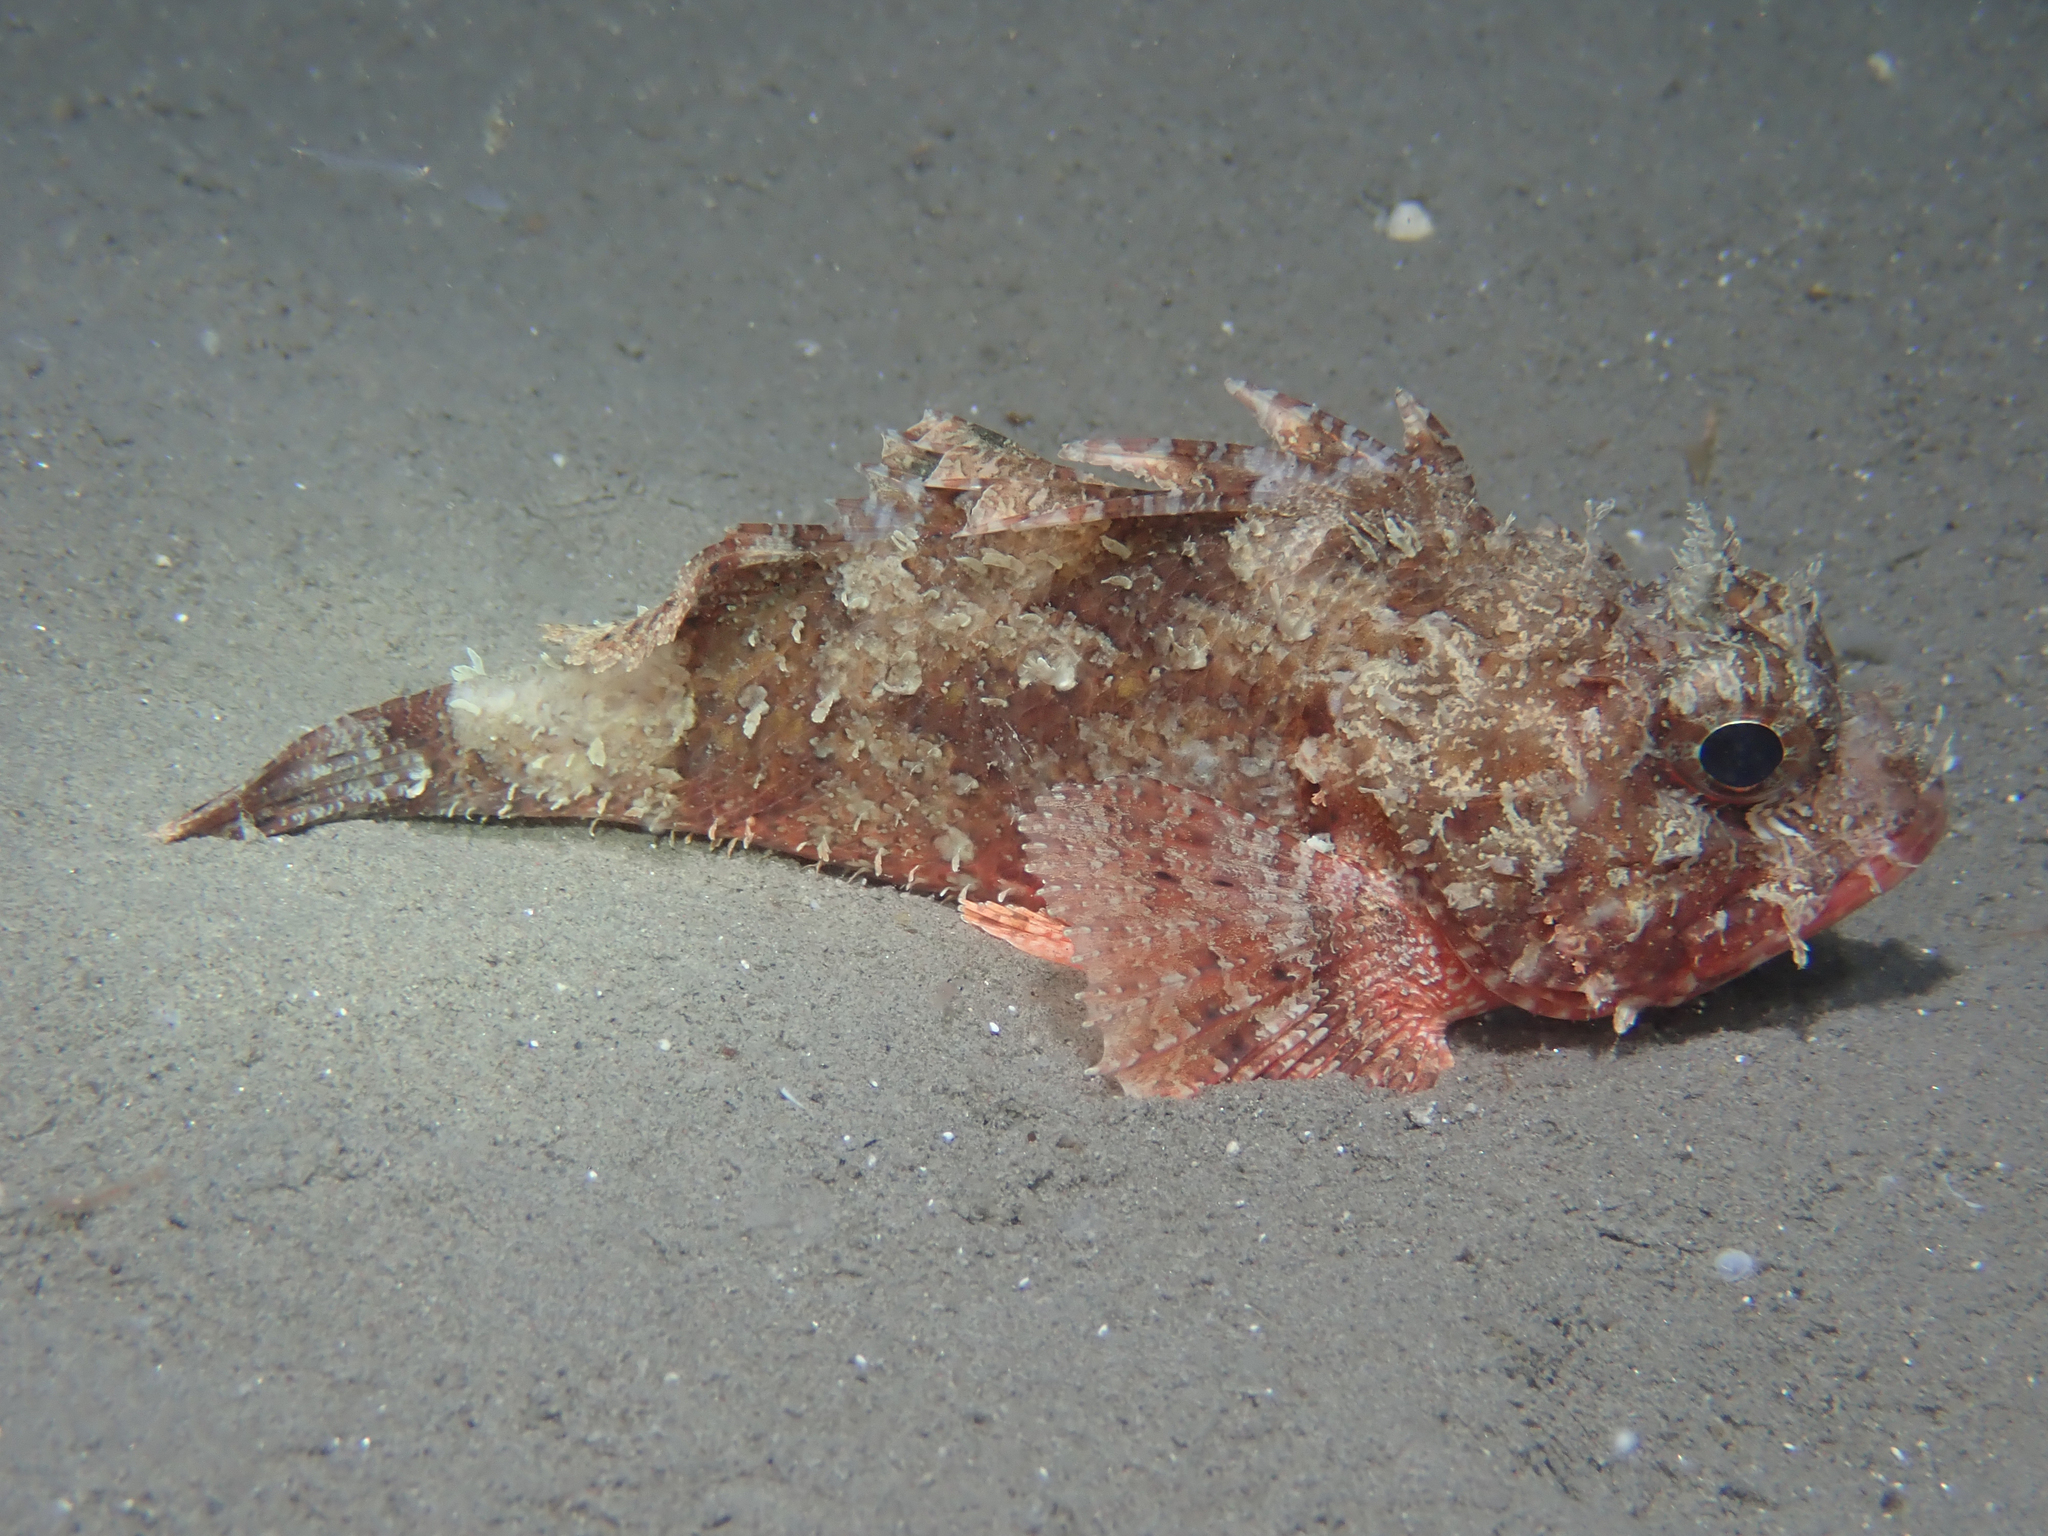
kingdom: Animalia
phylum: Chordata
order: Scorpaeniformes
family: Scorpaenidae
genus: Scorpaena
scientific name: Scorpaena notata
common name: Small red scorpionfish
